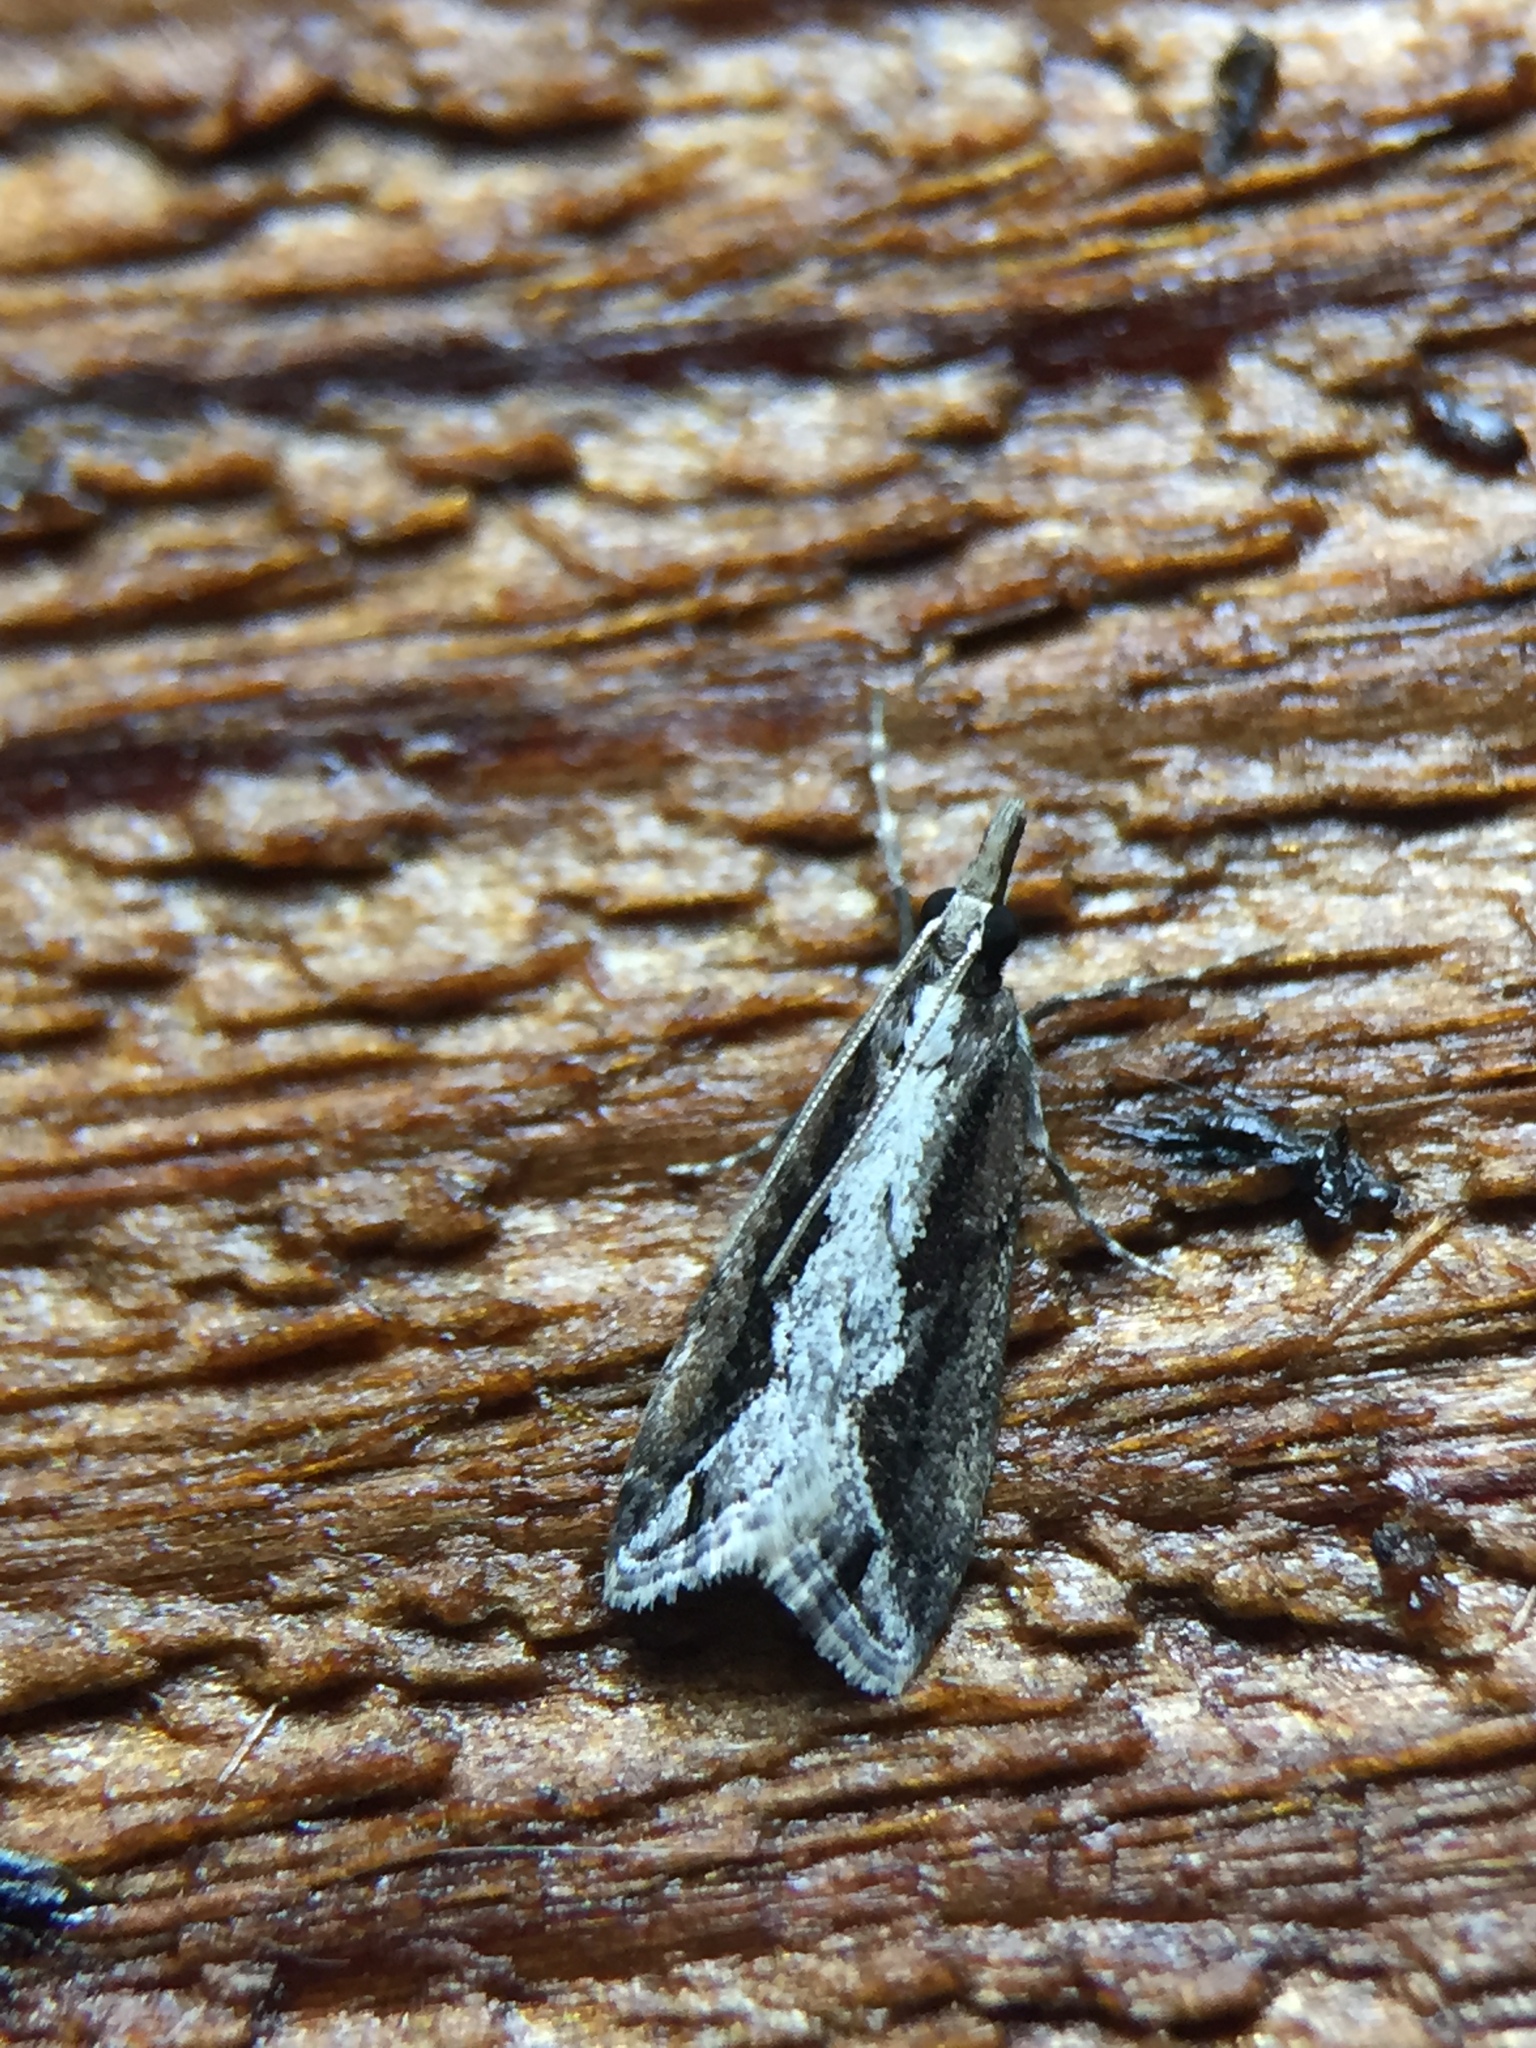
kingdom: Animalia
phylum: Arthropoda
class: Insecta
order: Lepidoptera
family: Crambidae
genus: Eudonia
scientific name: Eudonia steropaea
